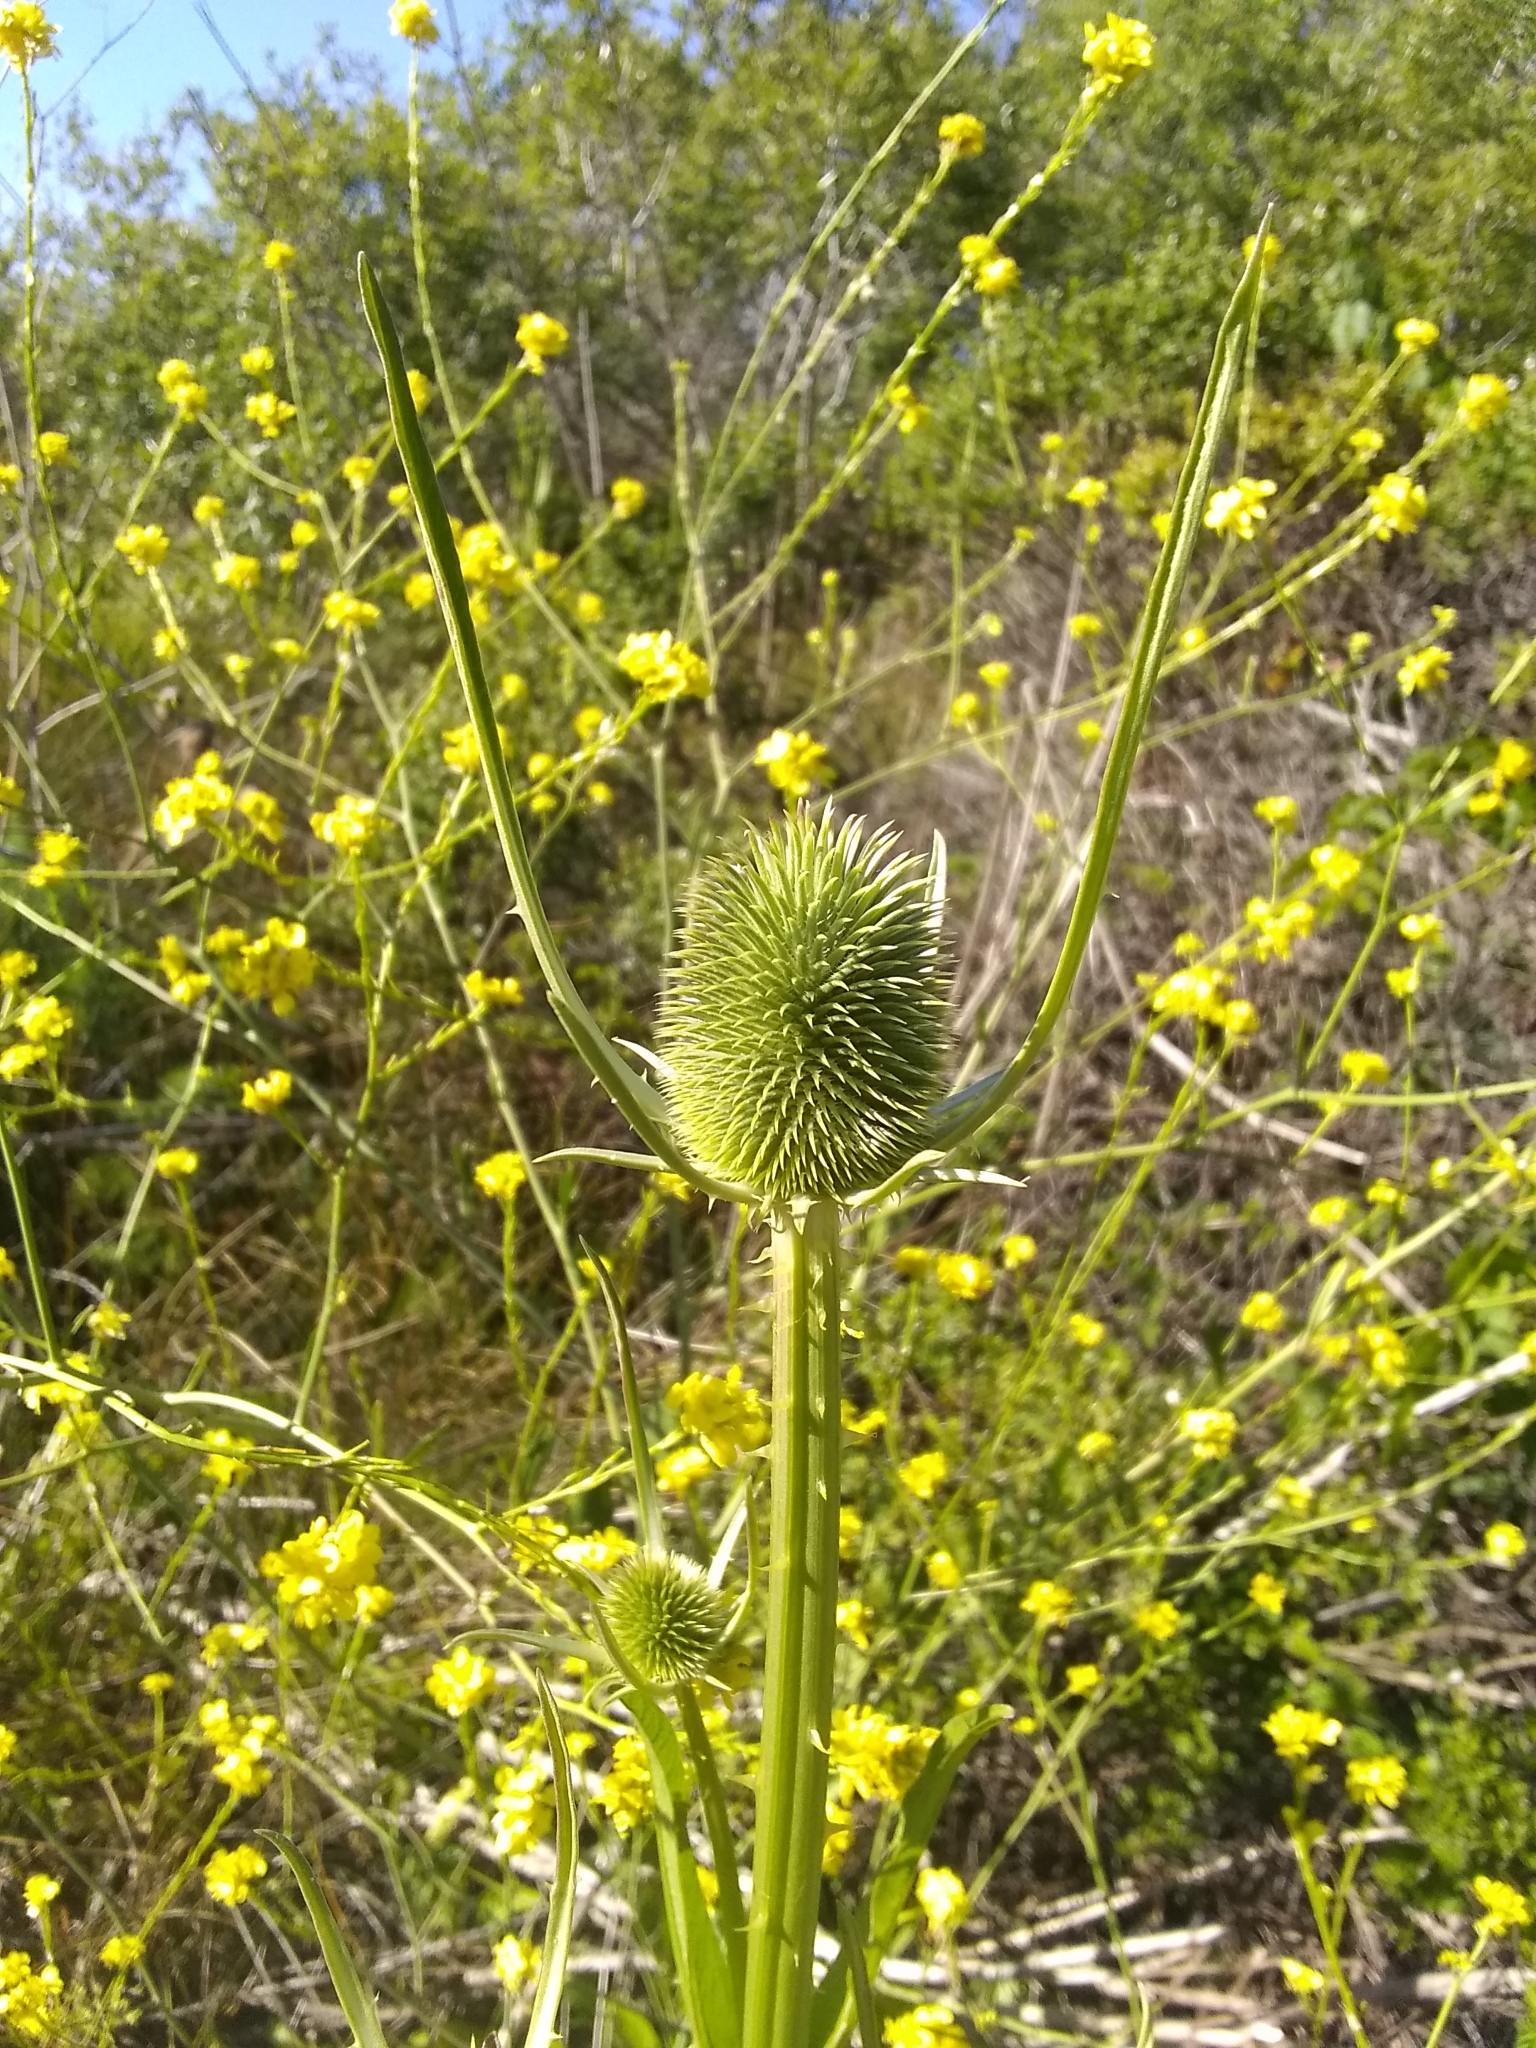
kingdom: Plantae
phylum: Tracheophyta
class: Magnoliopsida
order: Dipsacales
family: Caprifoliaceae
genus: Dipsacus
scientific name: Dipsacus sativus
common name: Fuller's teasel
